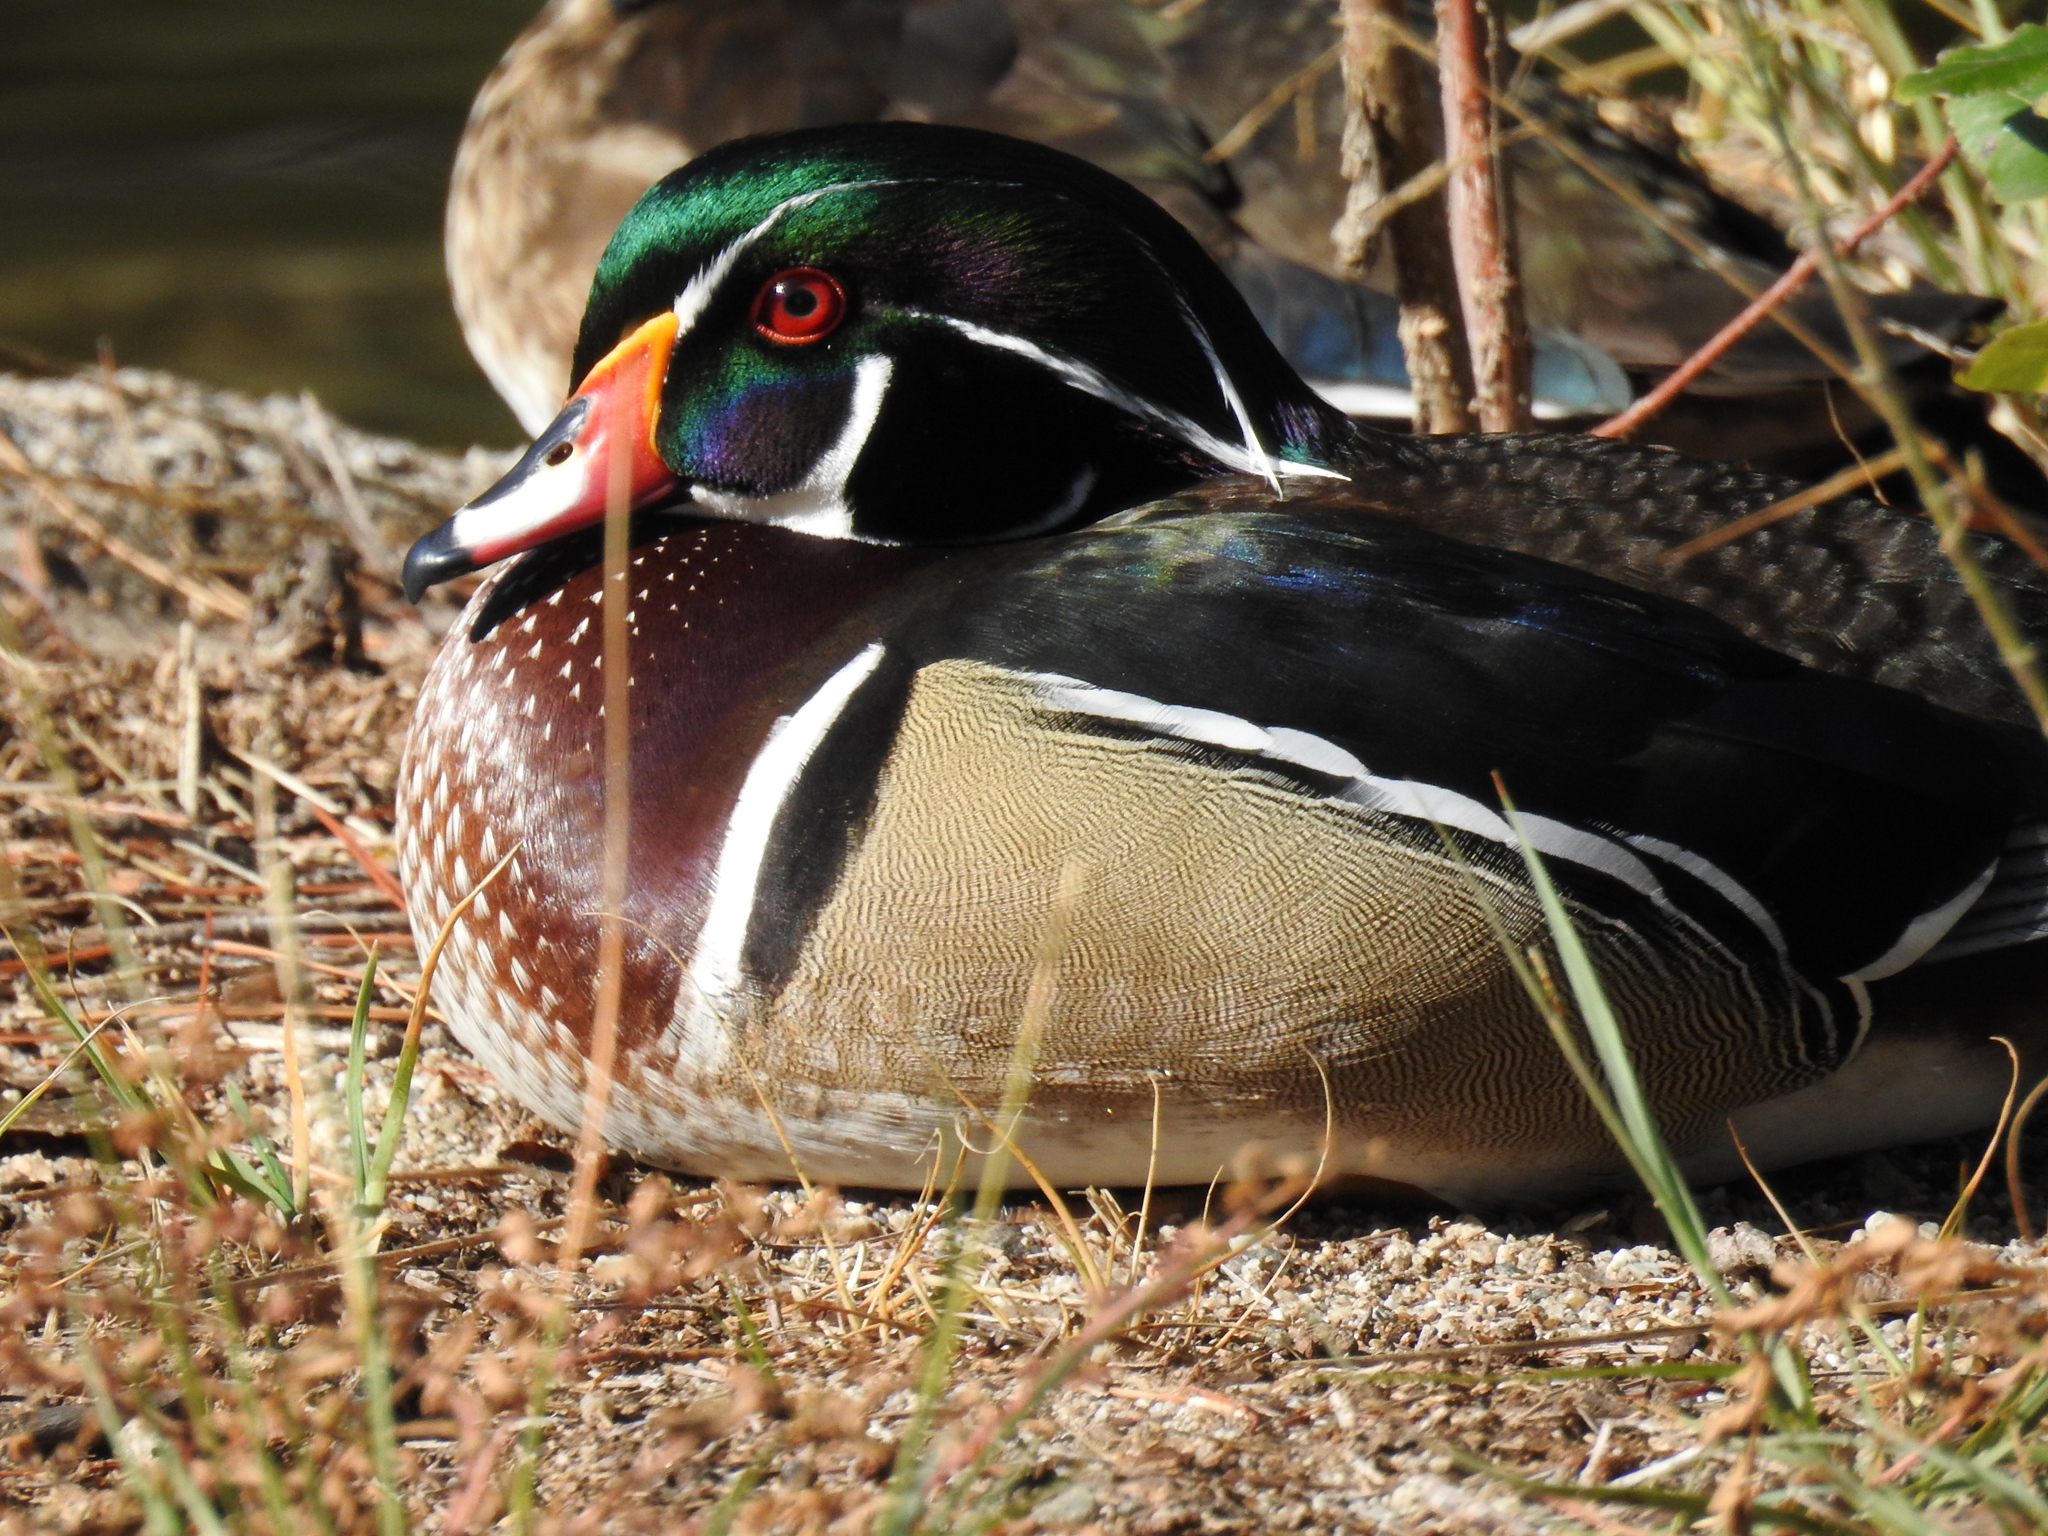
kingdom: Animalia
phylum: Chordata
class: Aves
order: Anseriformes
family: Anatidae
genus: Aix
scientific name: Aix sponsa
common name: Wood duck
